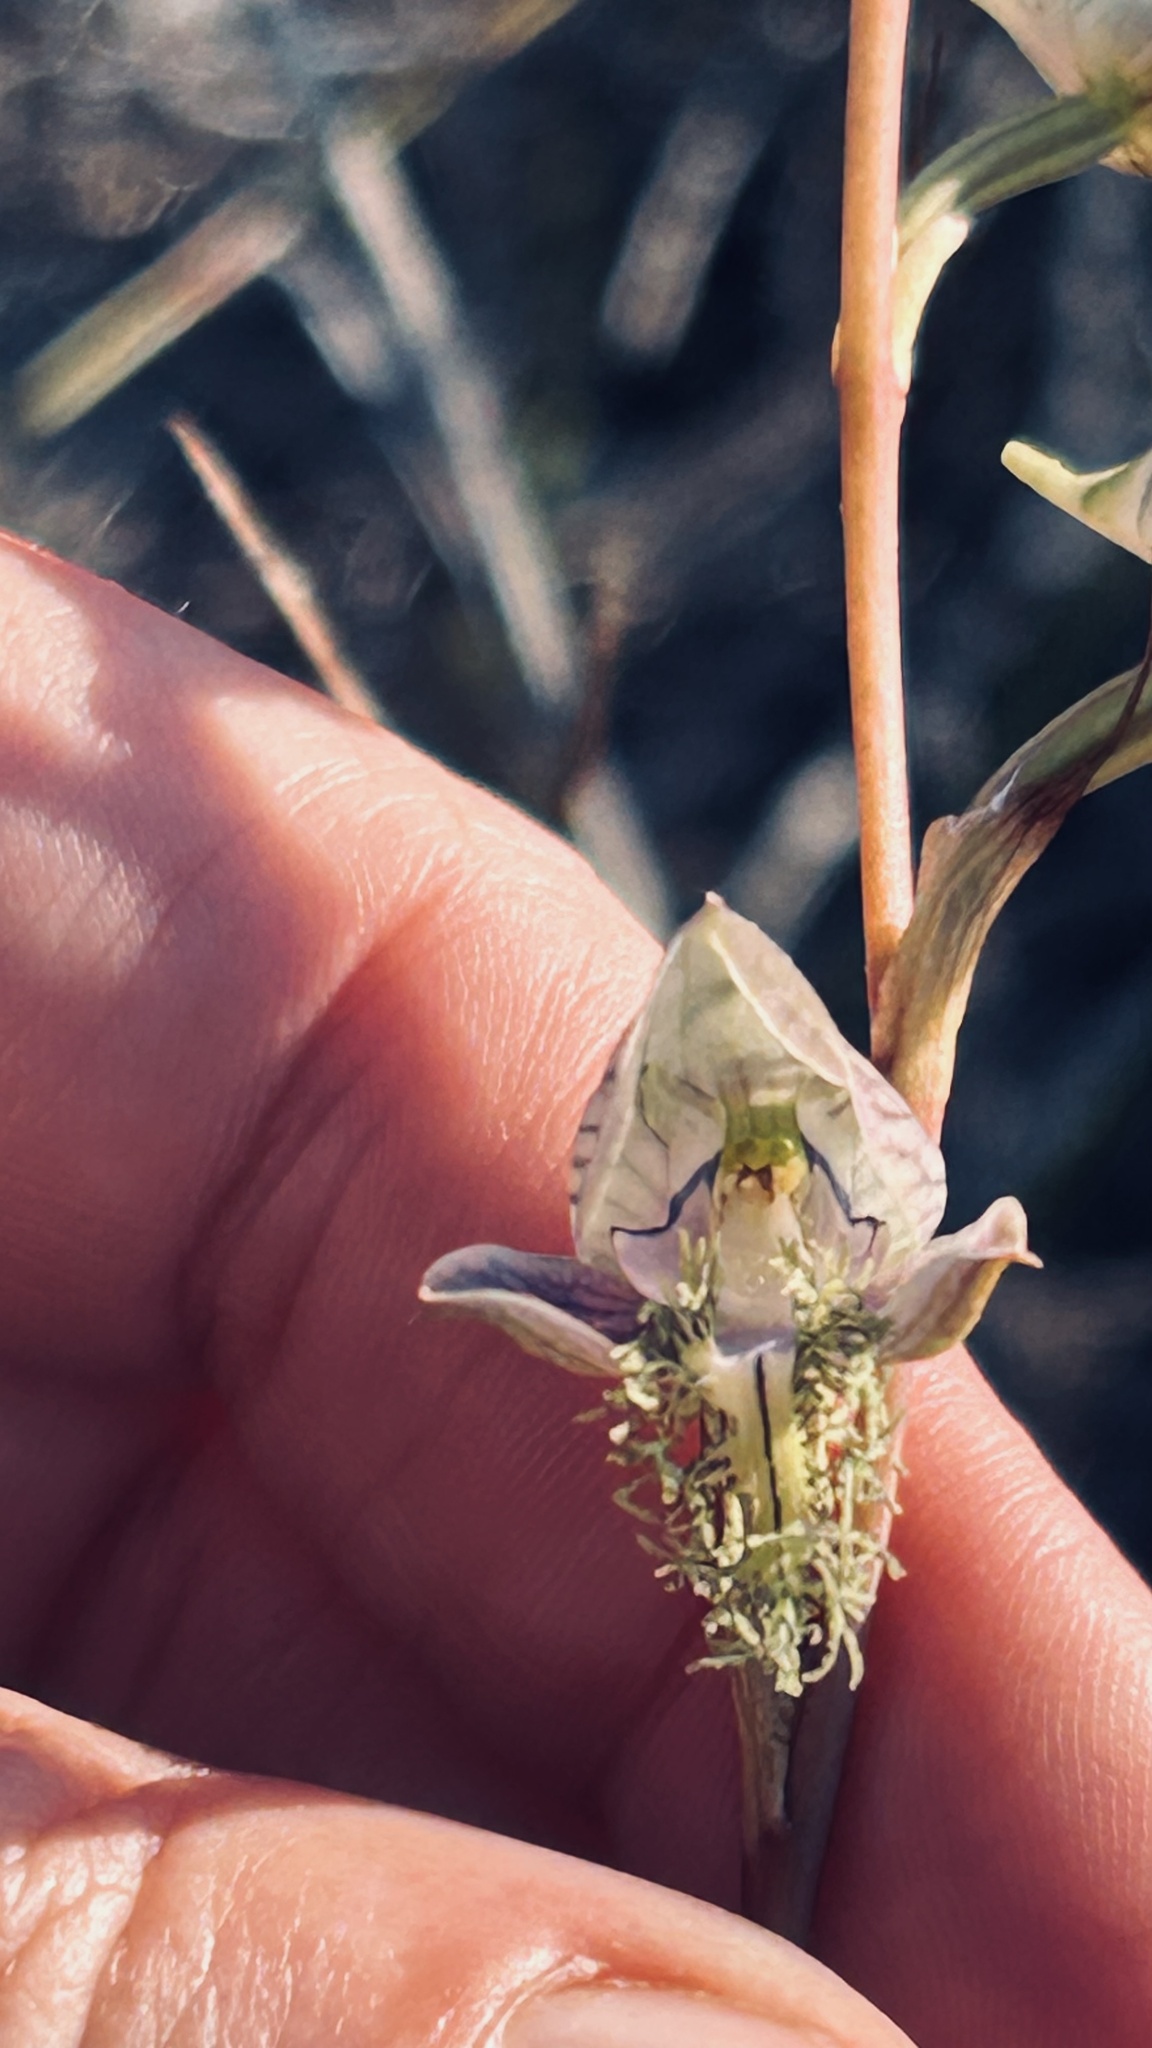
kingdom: Plantae
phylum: Tracheophyta
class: Liliopsida
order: Asparagales
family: Orchidaceae
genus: Disa
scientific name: Disa lugens
